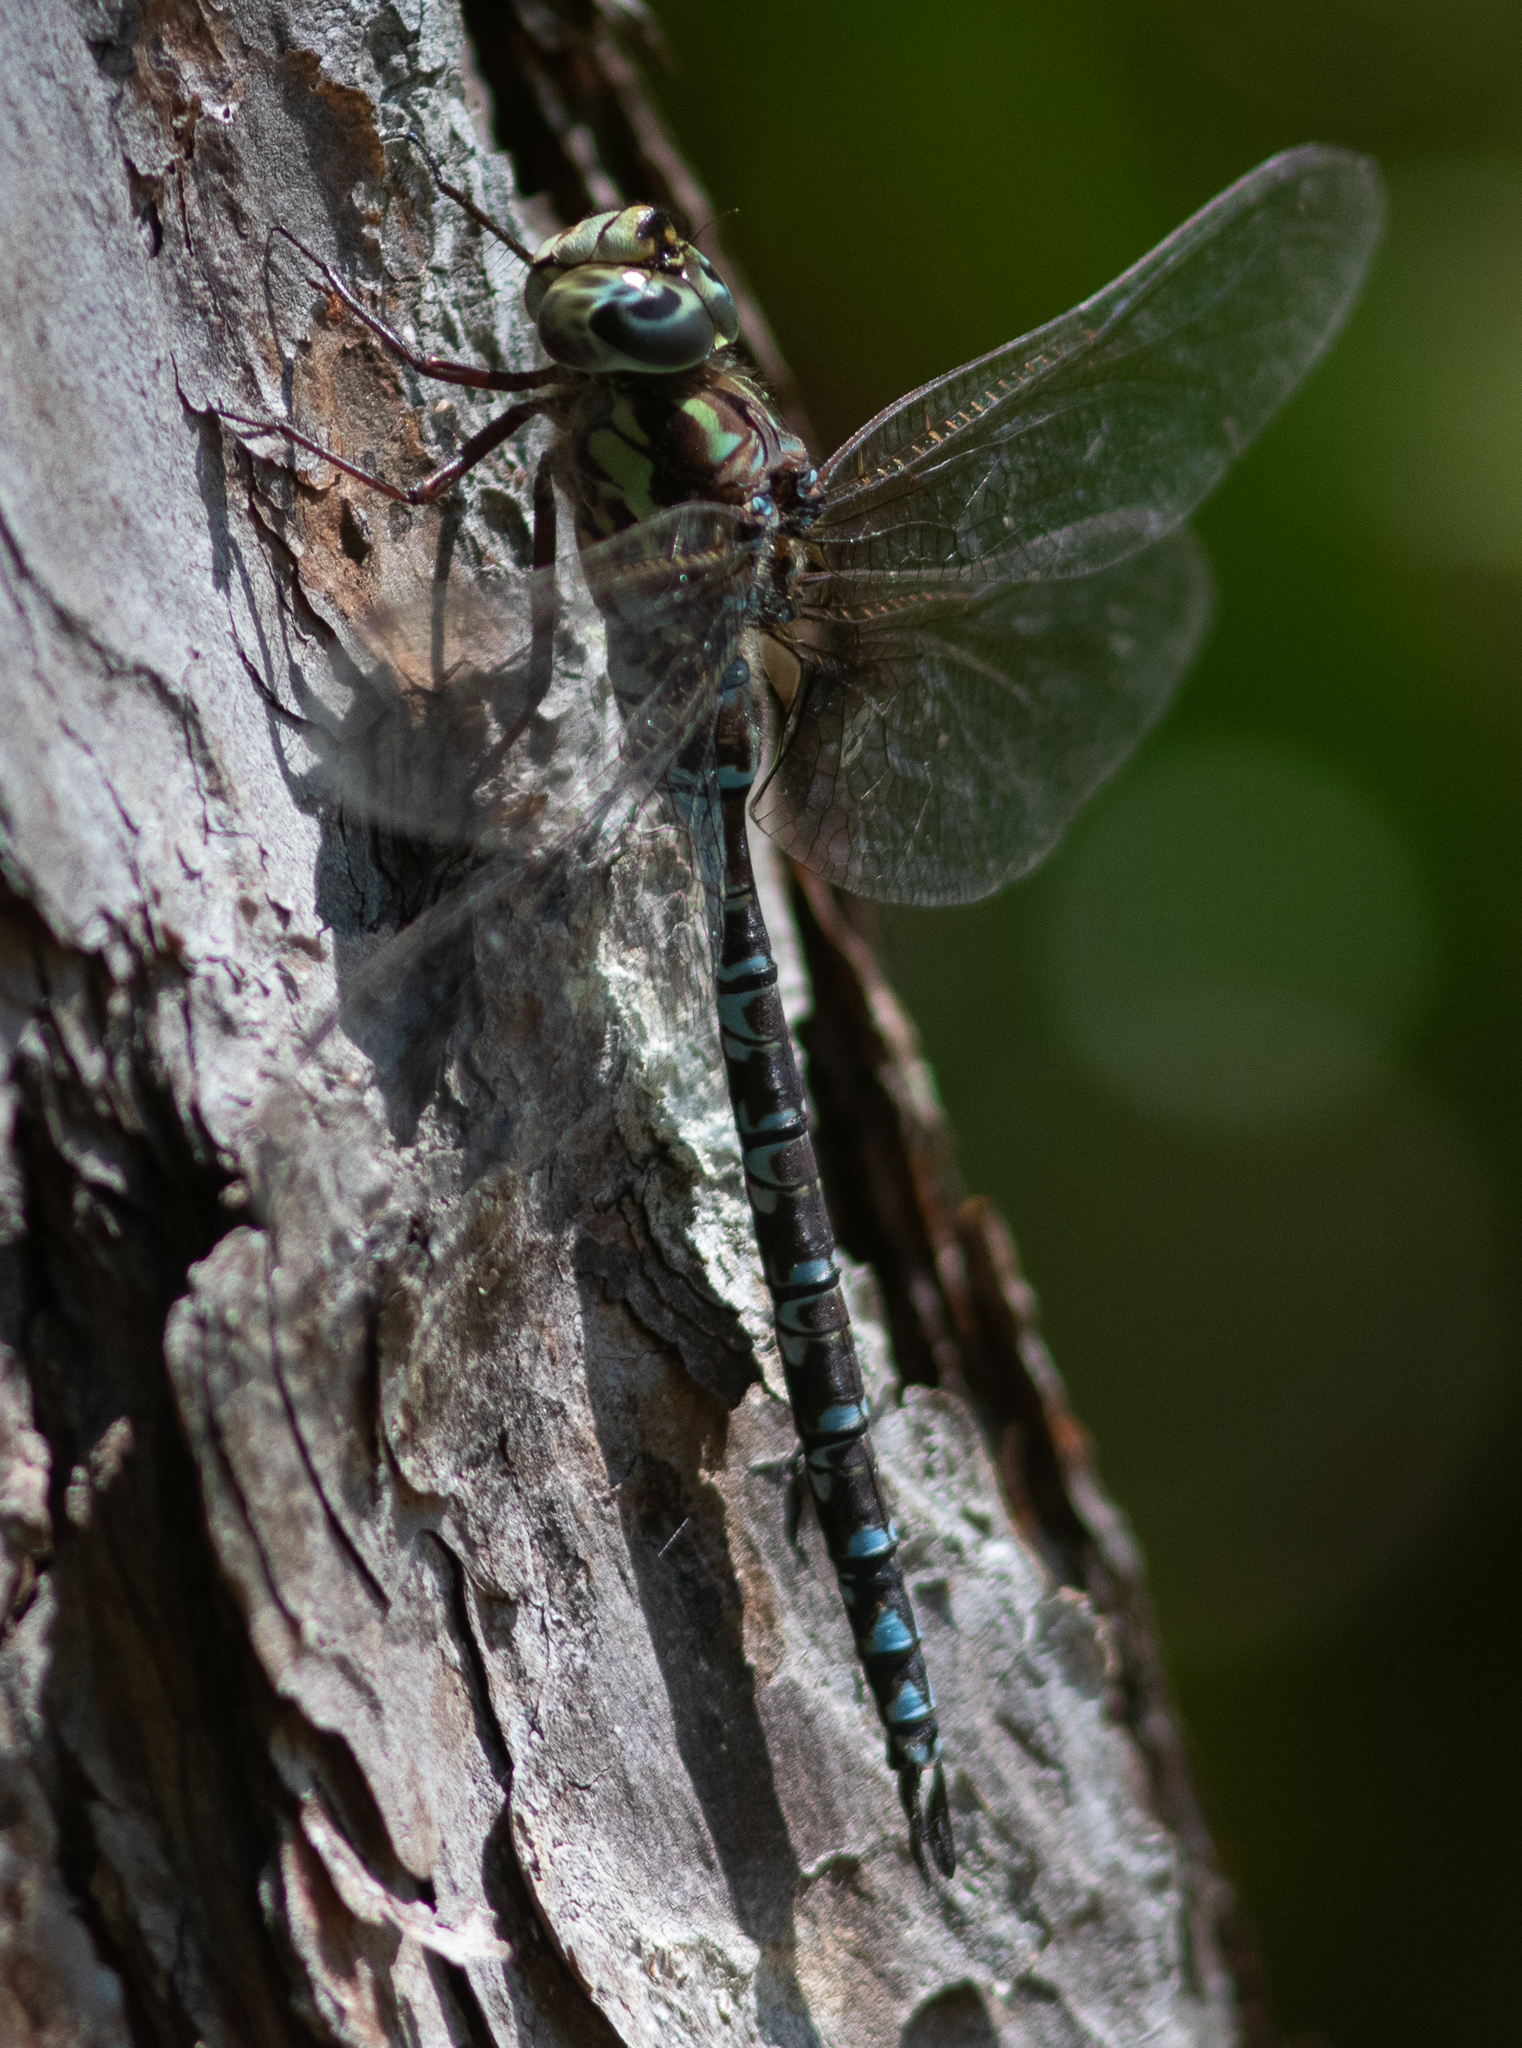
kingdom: Animalia
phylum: Arthropoda
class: Insecta
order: Odonata
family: Aeshnidae
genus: Aeshna
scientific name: Aeshna clepsydra
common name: Mottled darner
